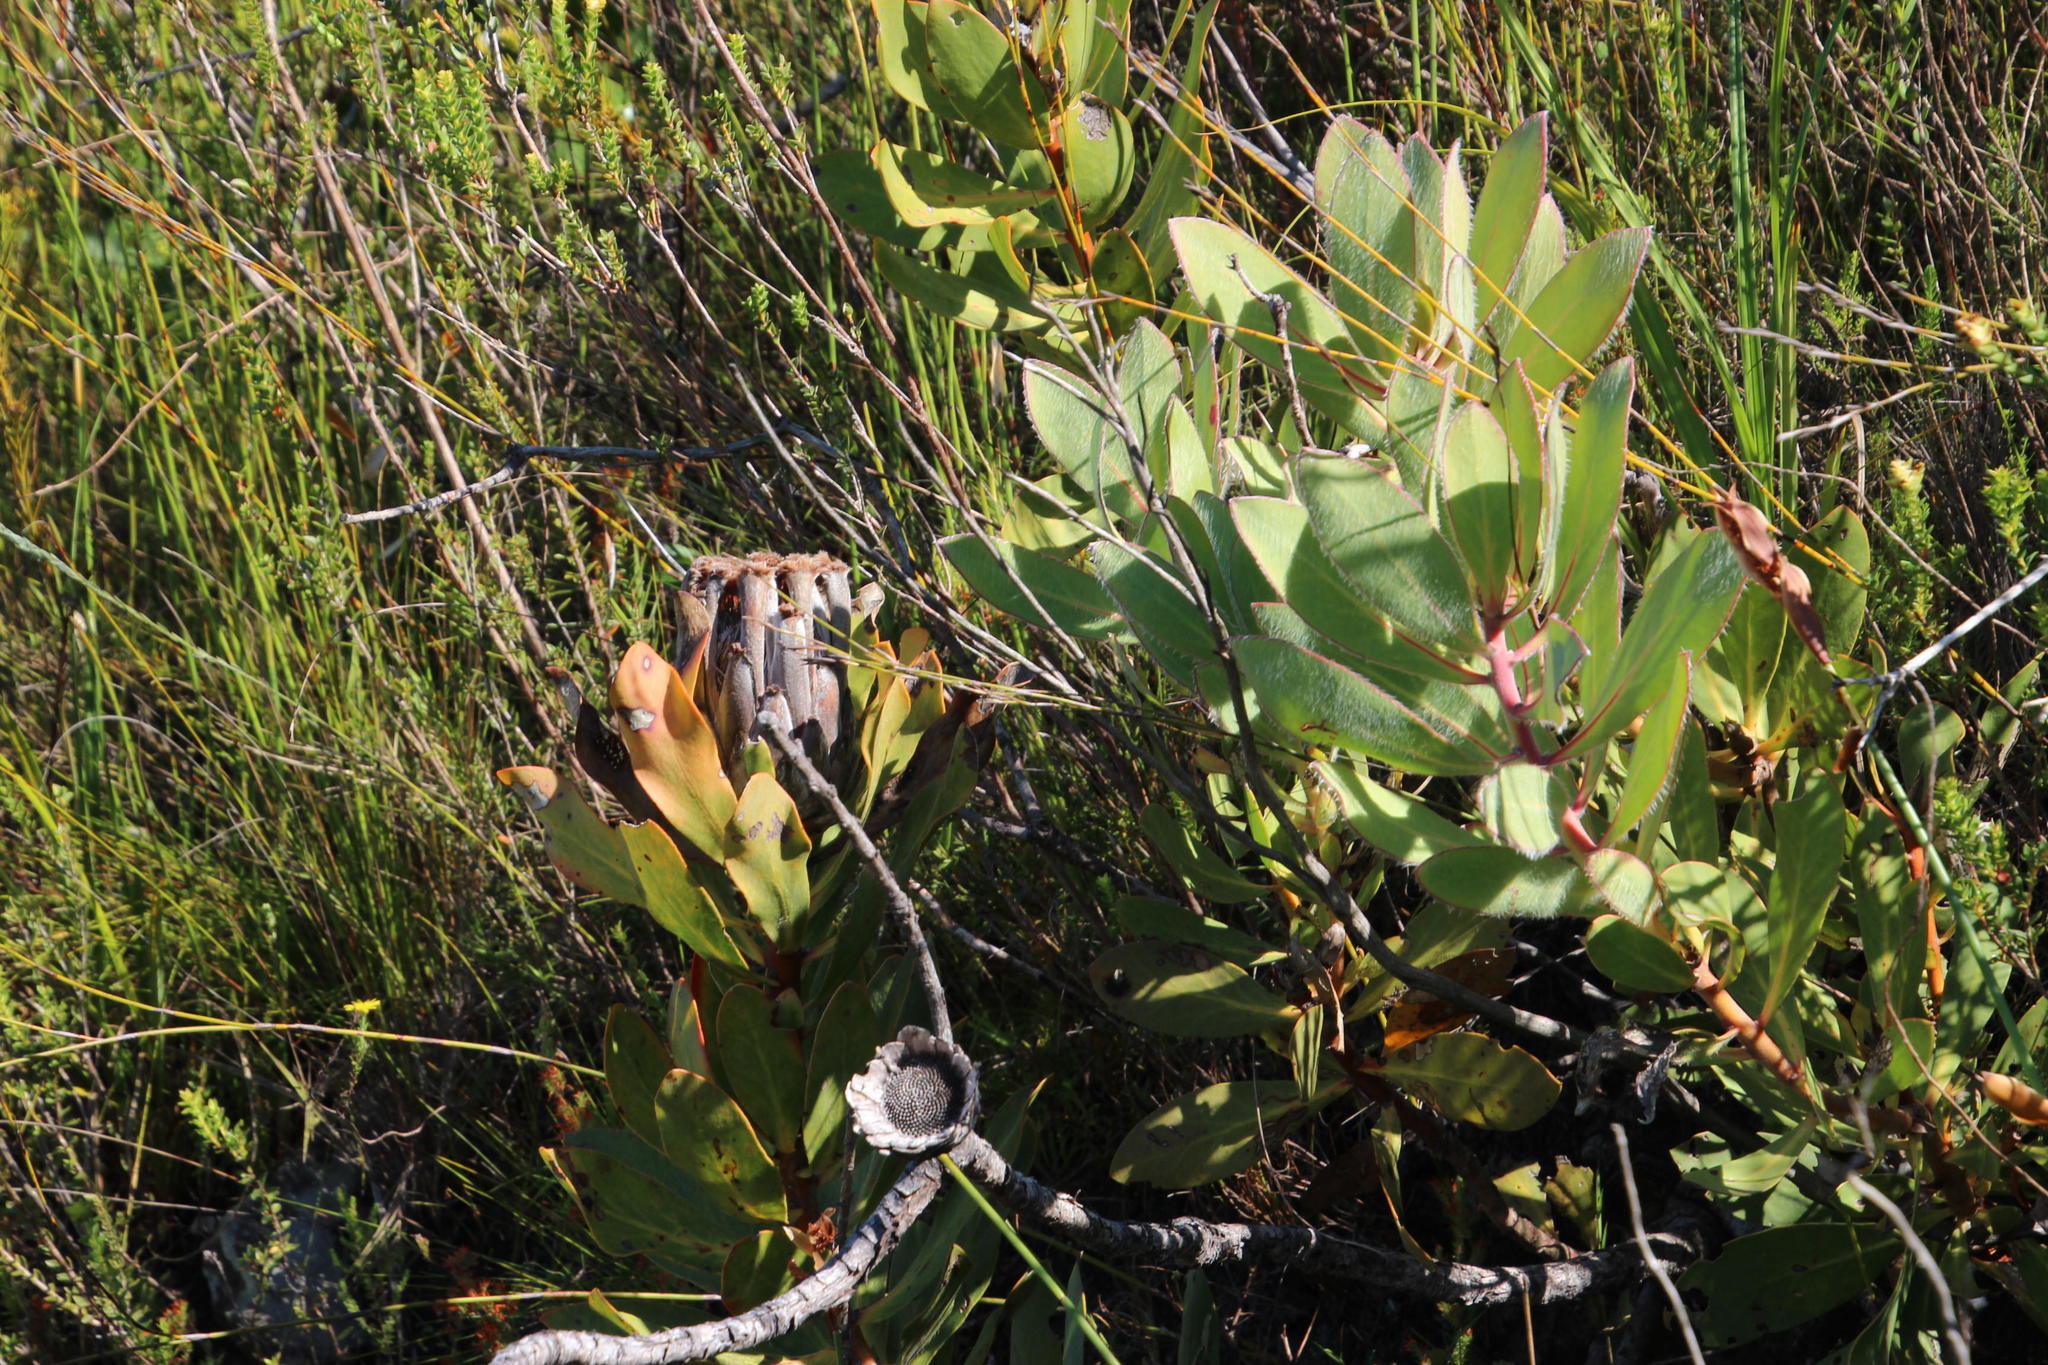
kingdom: Plantae
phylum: Tracheophyta
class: Magnoliopsida
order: Proteales
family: Proteaceae
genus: Protea
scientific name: Protea speciosa
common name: Brown-beard sugarbush
